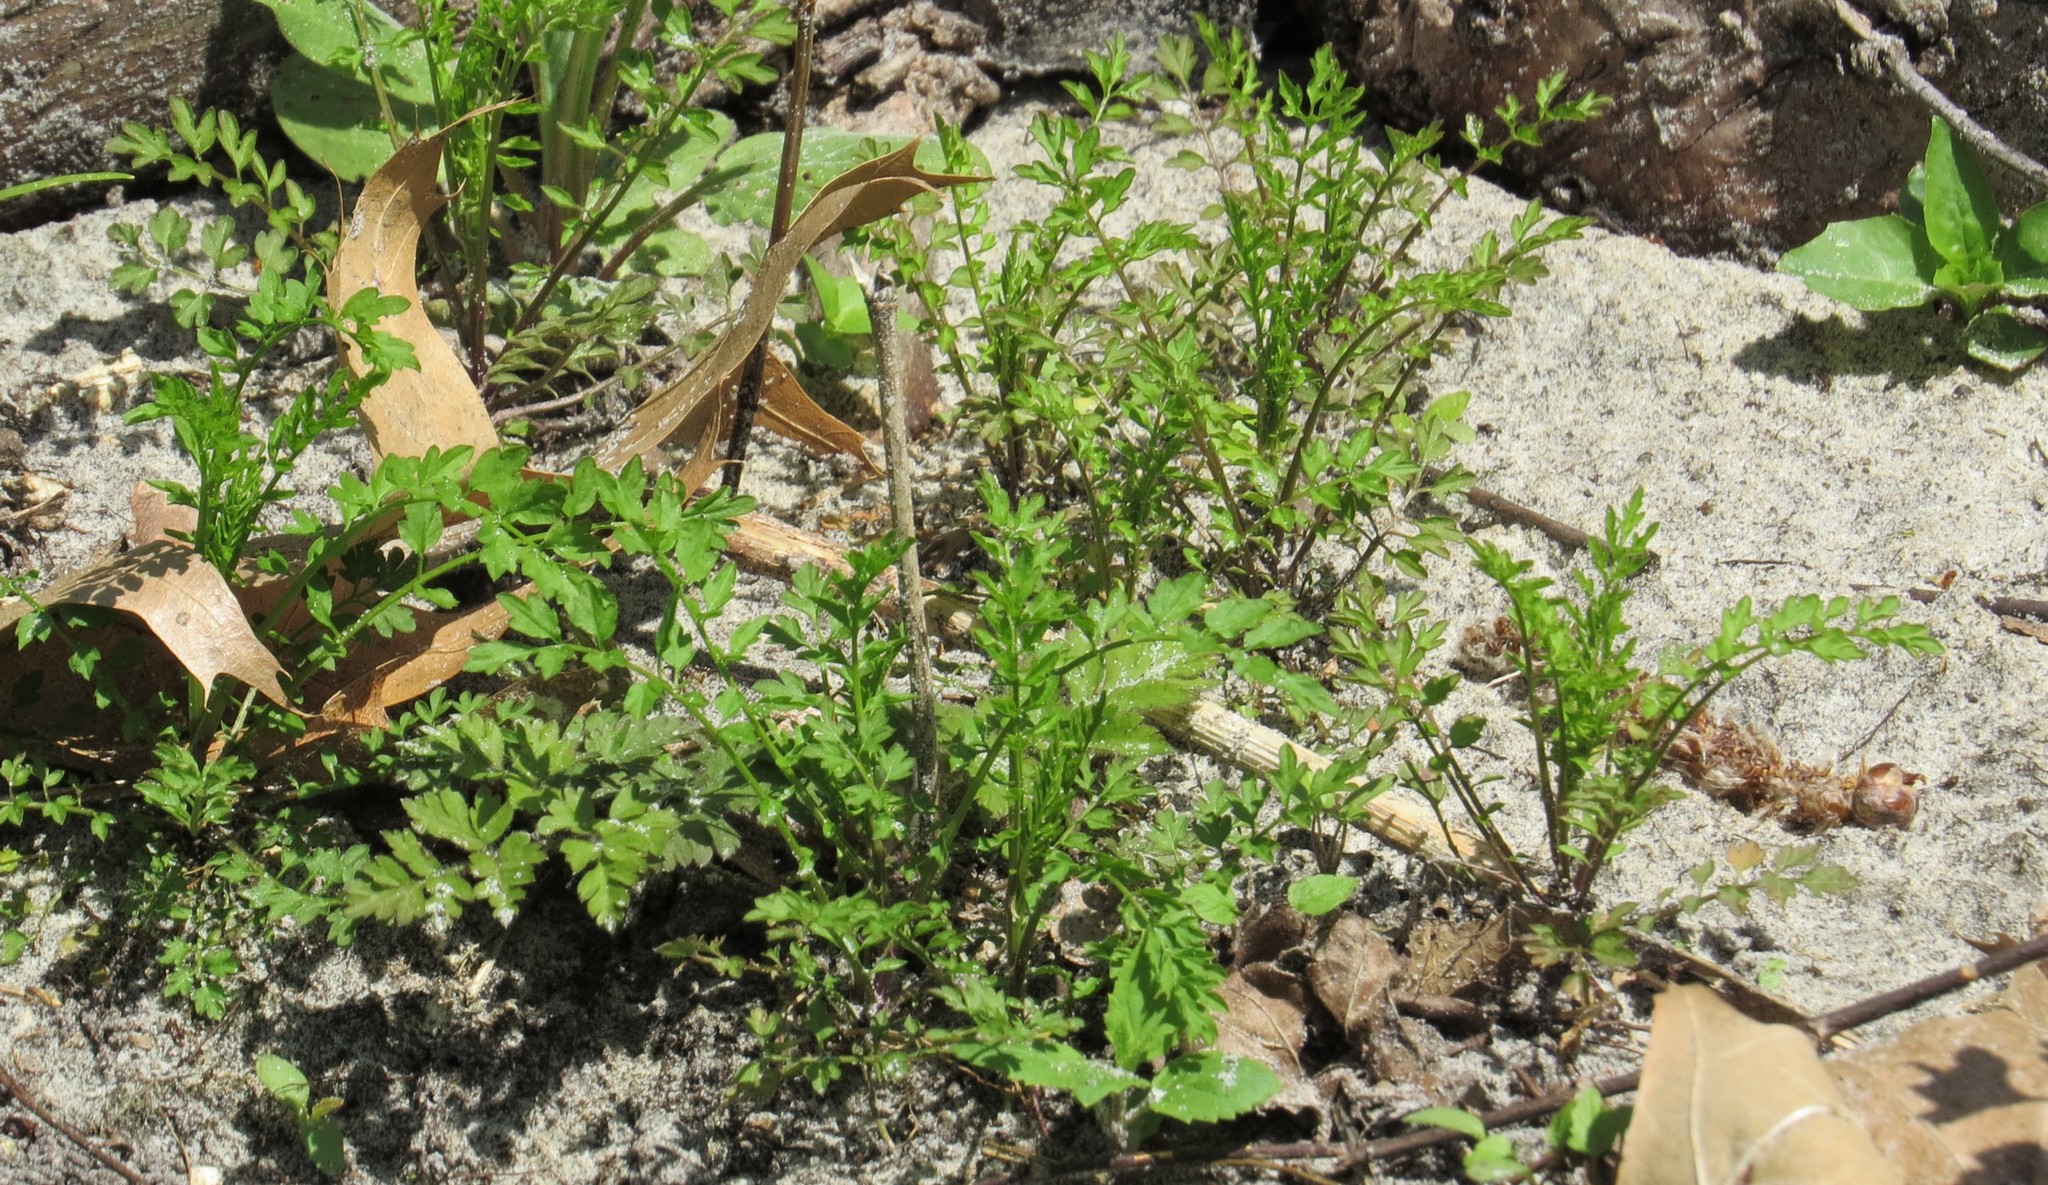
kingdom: Plantae
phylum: Tracheophyta
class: Magnoliopsida
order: Brassicales
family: Brassicaceae
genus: Cardamine
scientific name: Cardamine impatiens
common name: Narrow-leaved bitter-cress
